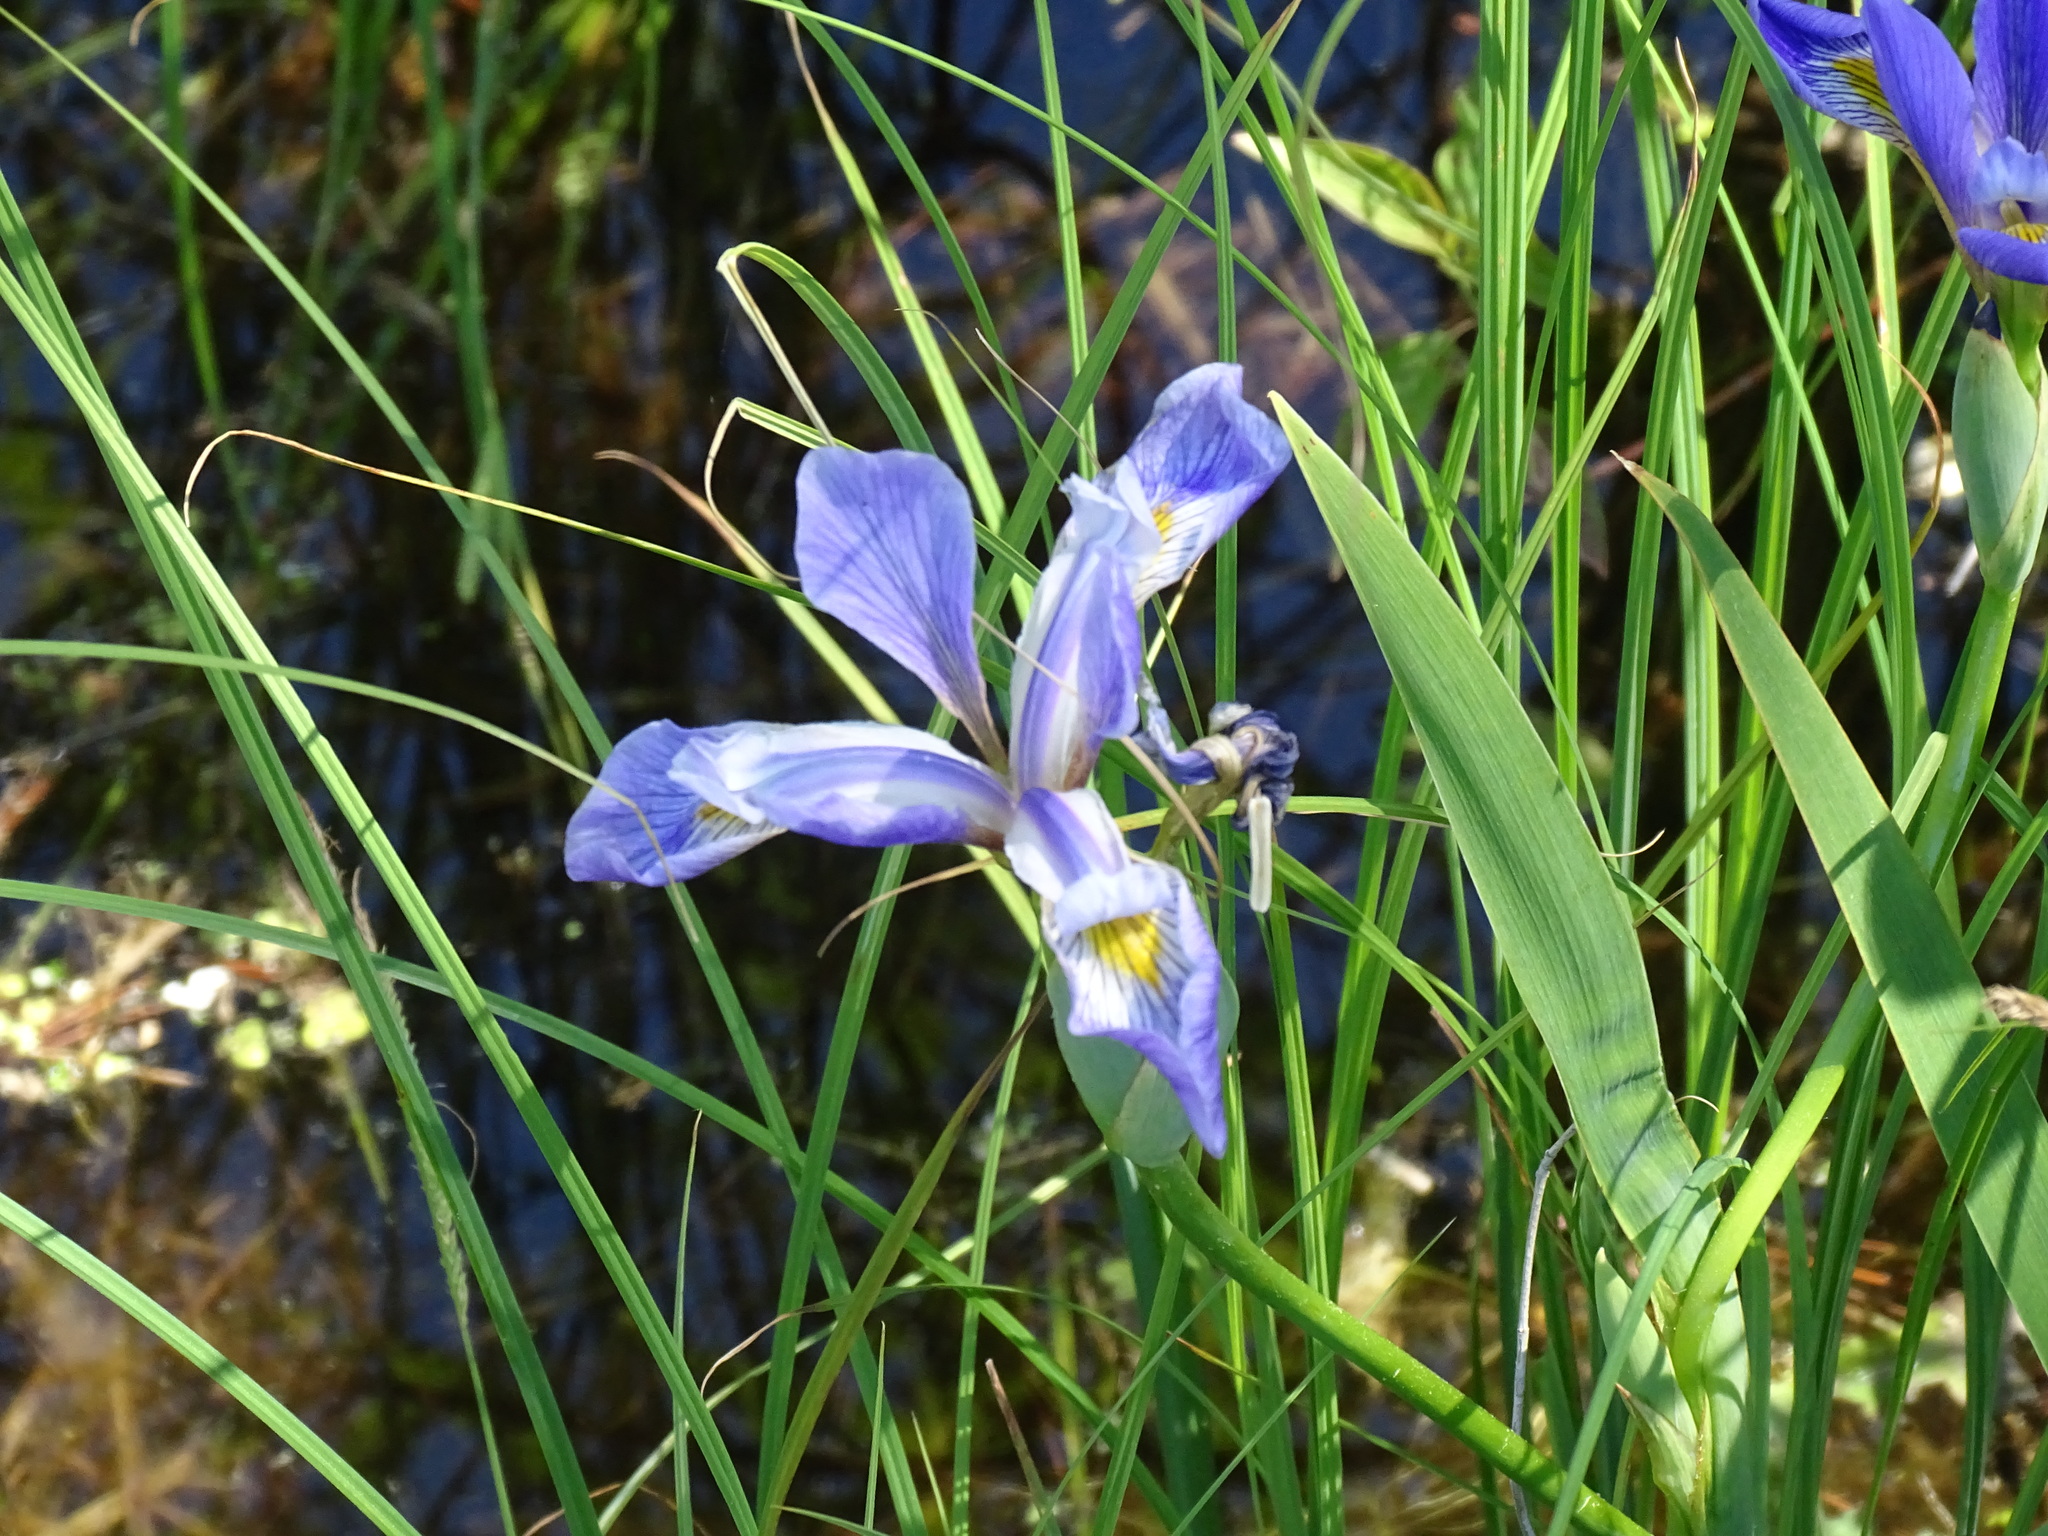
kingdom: Plantae
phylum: Tracheophyta
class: Liliopsida
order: Asparagales
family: Iridaceae
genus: Iris
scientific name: Iris virginica
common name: Southern blue flag
